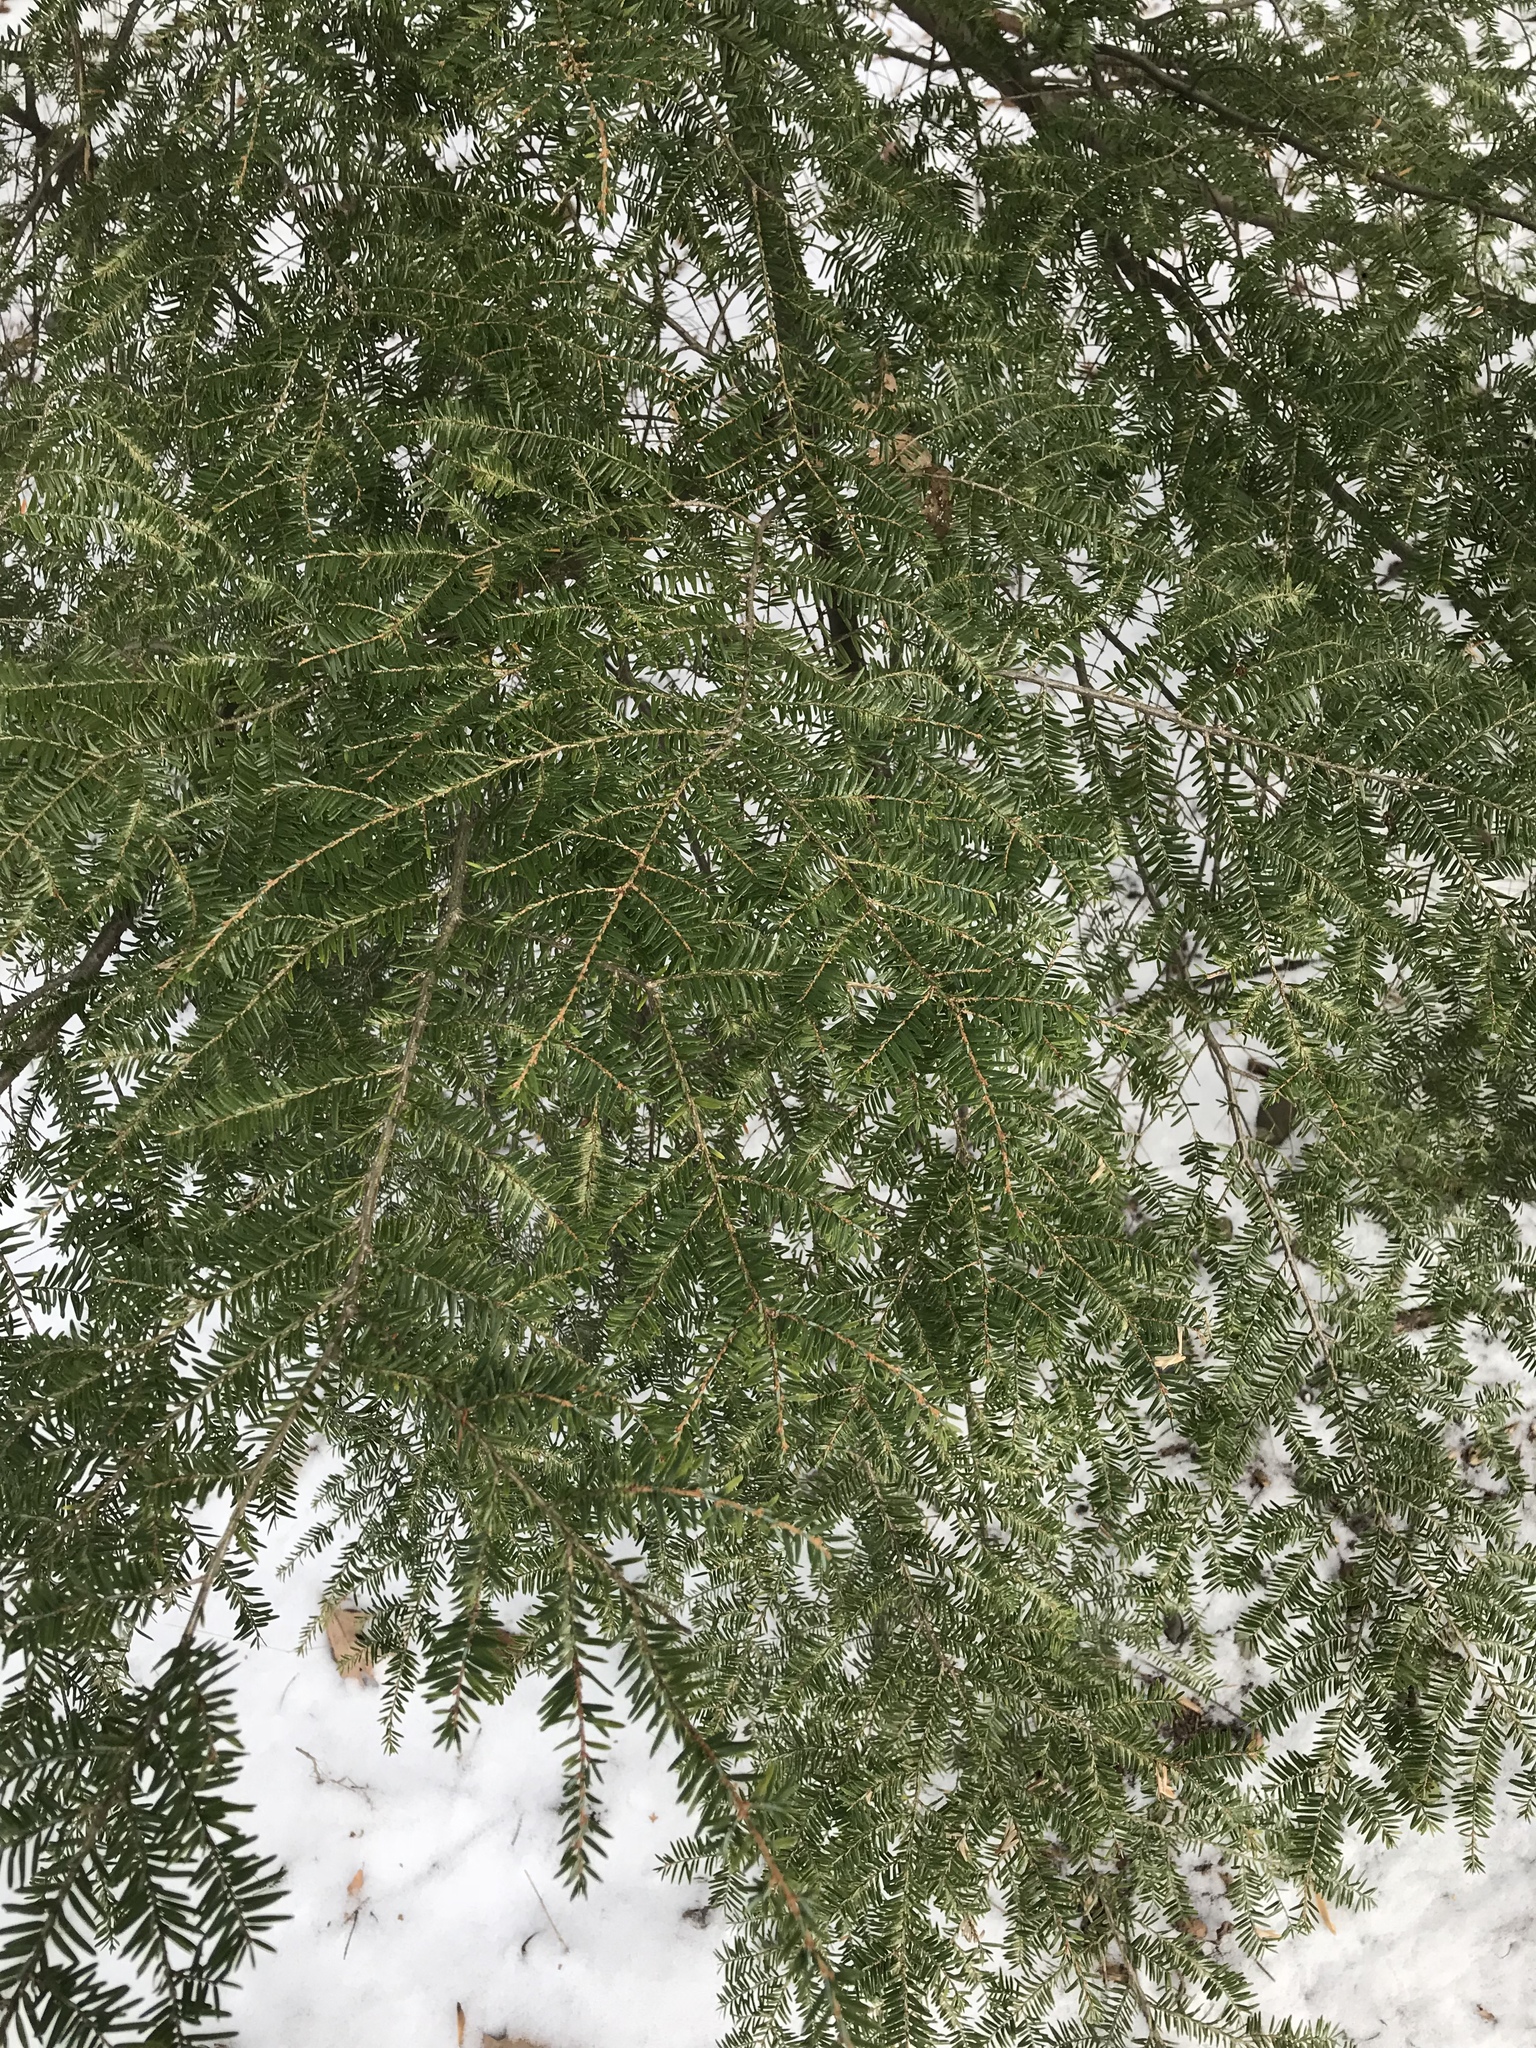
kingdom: Plantae
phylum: Tracheophyta
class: Pinopsida
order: Pinales
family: Pinaceae
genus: Tsuga
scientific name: Tsuga canadensis
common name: Eastern hemlock
